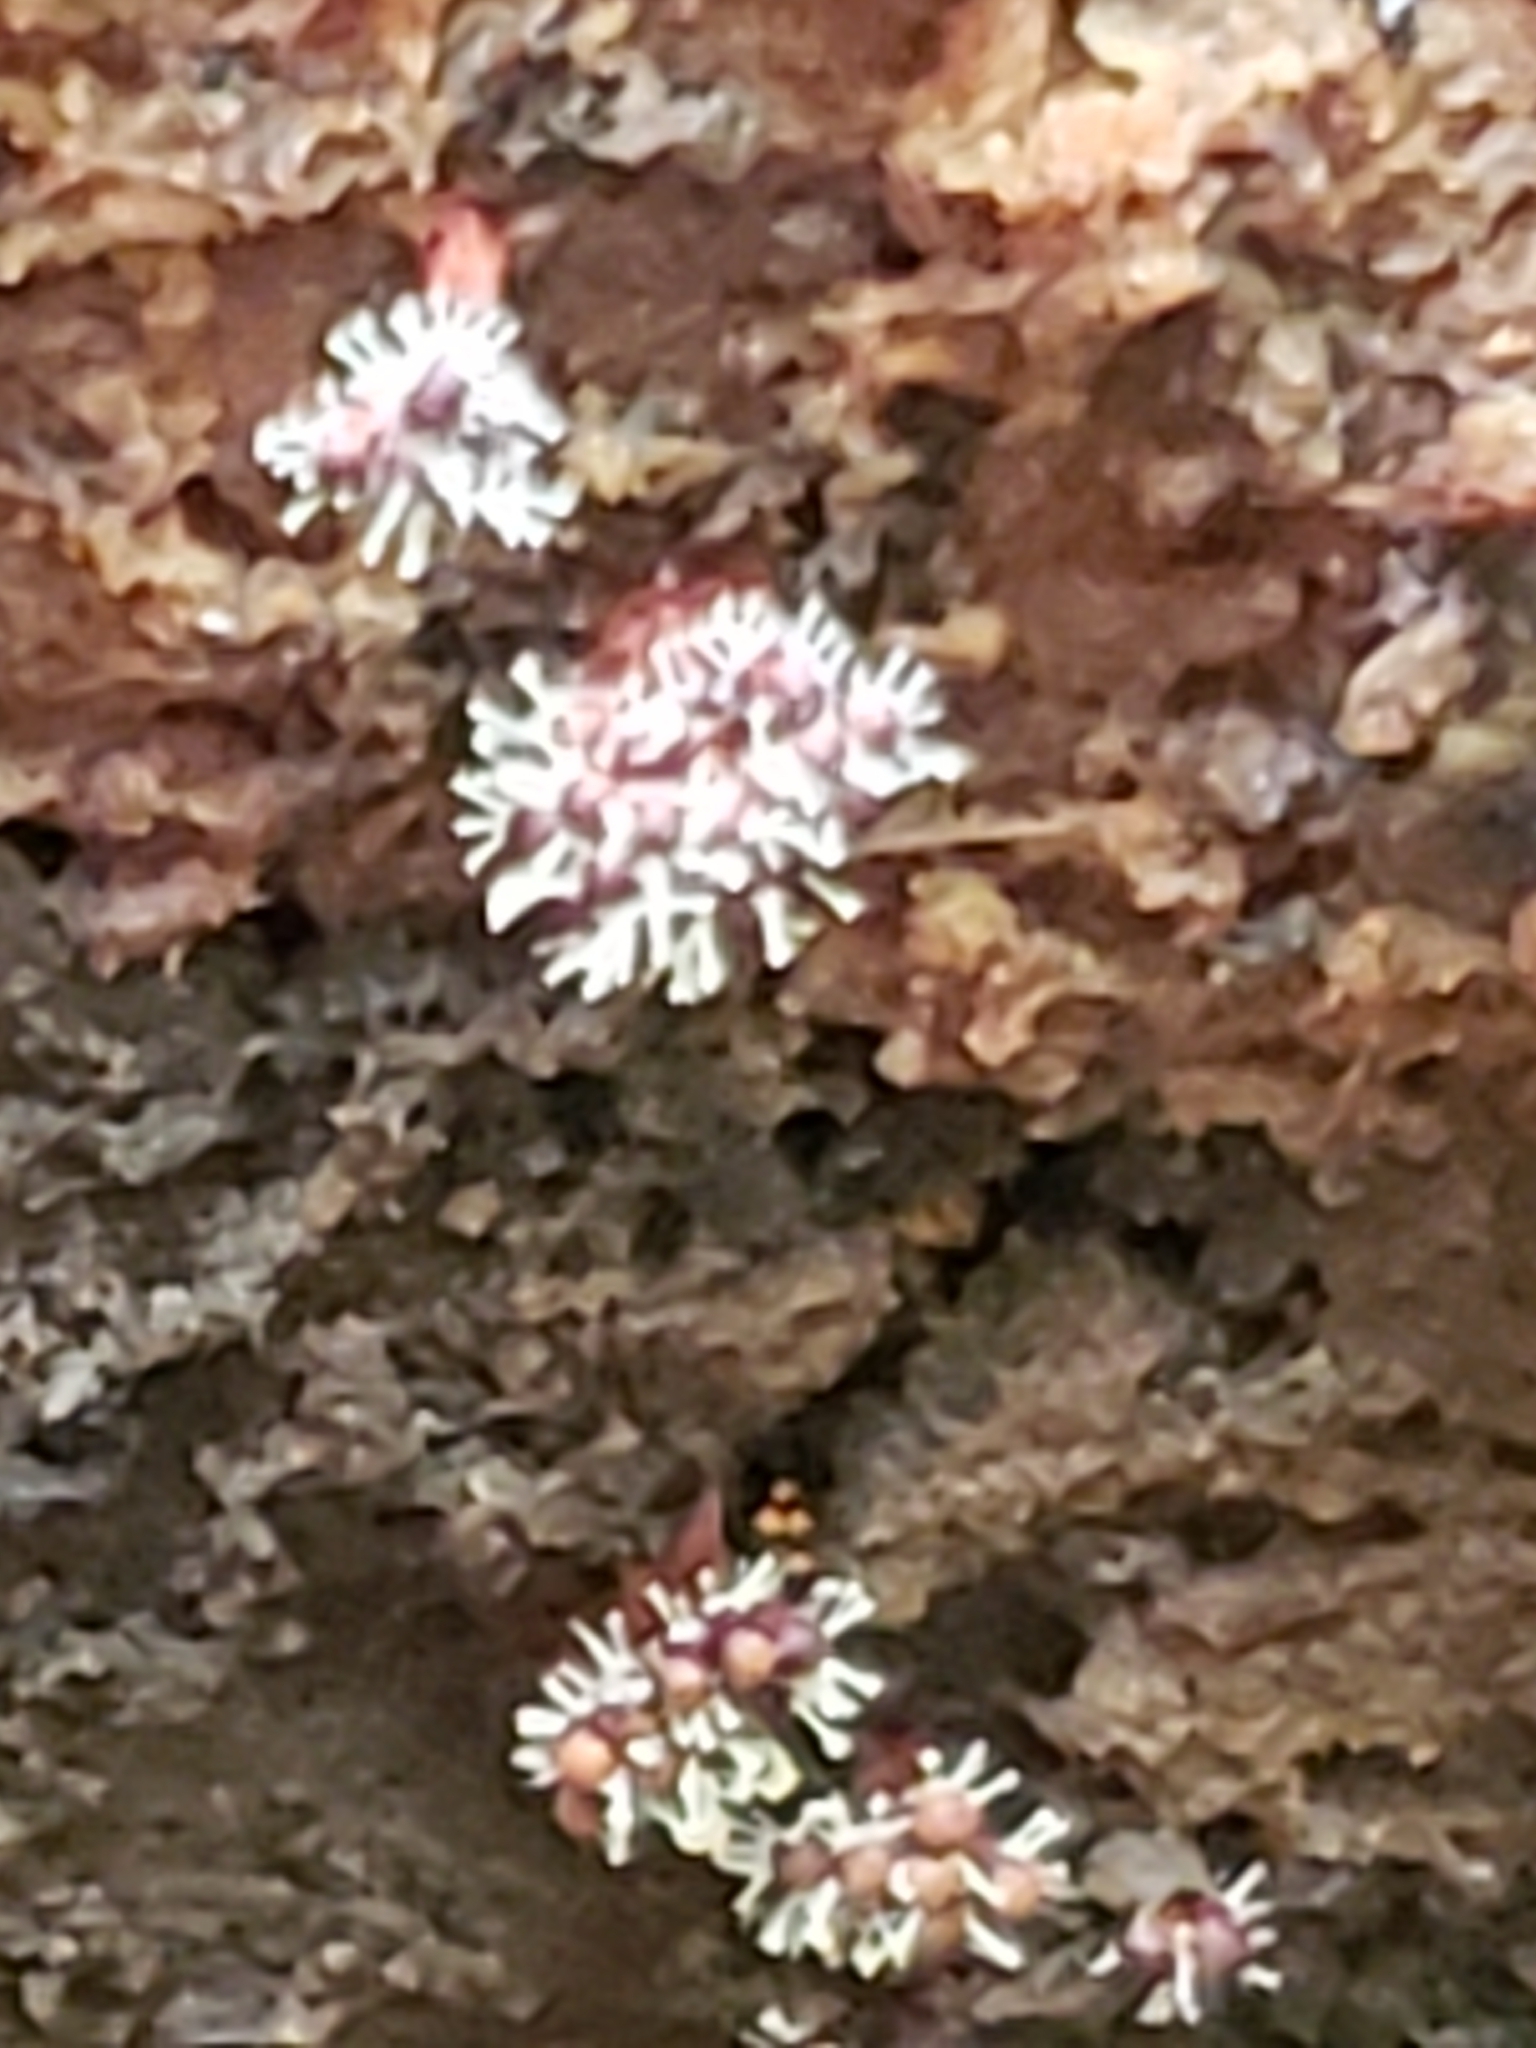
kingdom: Protozoa
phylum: Mycetozoa
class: Myxomycetes
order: Trichiales
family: Trichiaceae
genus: Metatrichia
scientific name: Metatrichia vesparia
